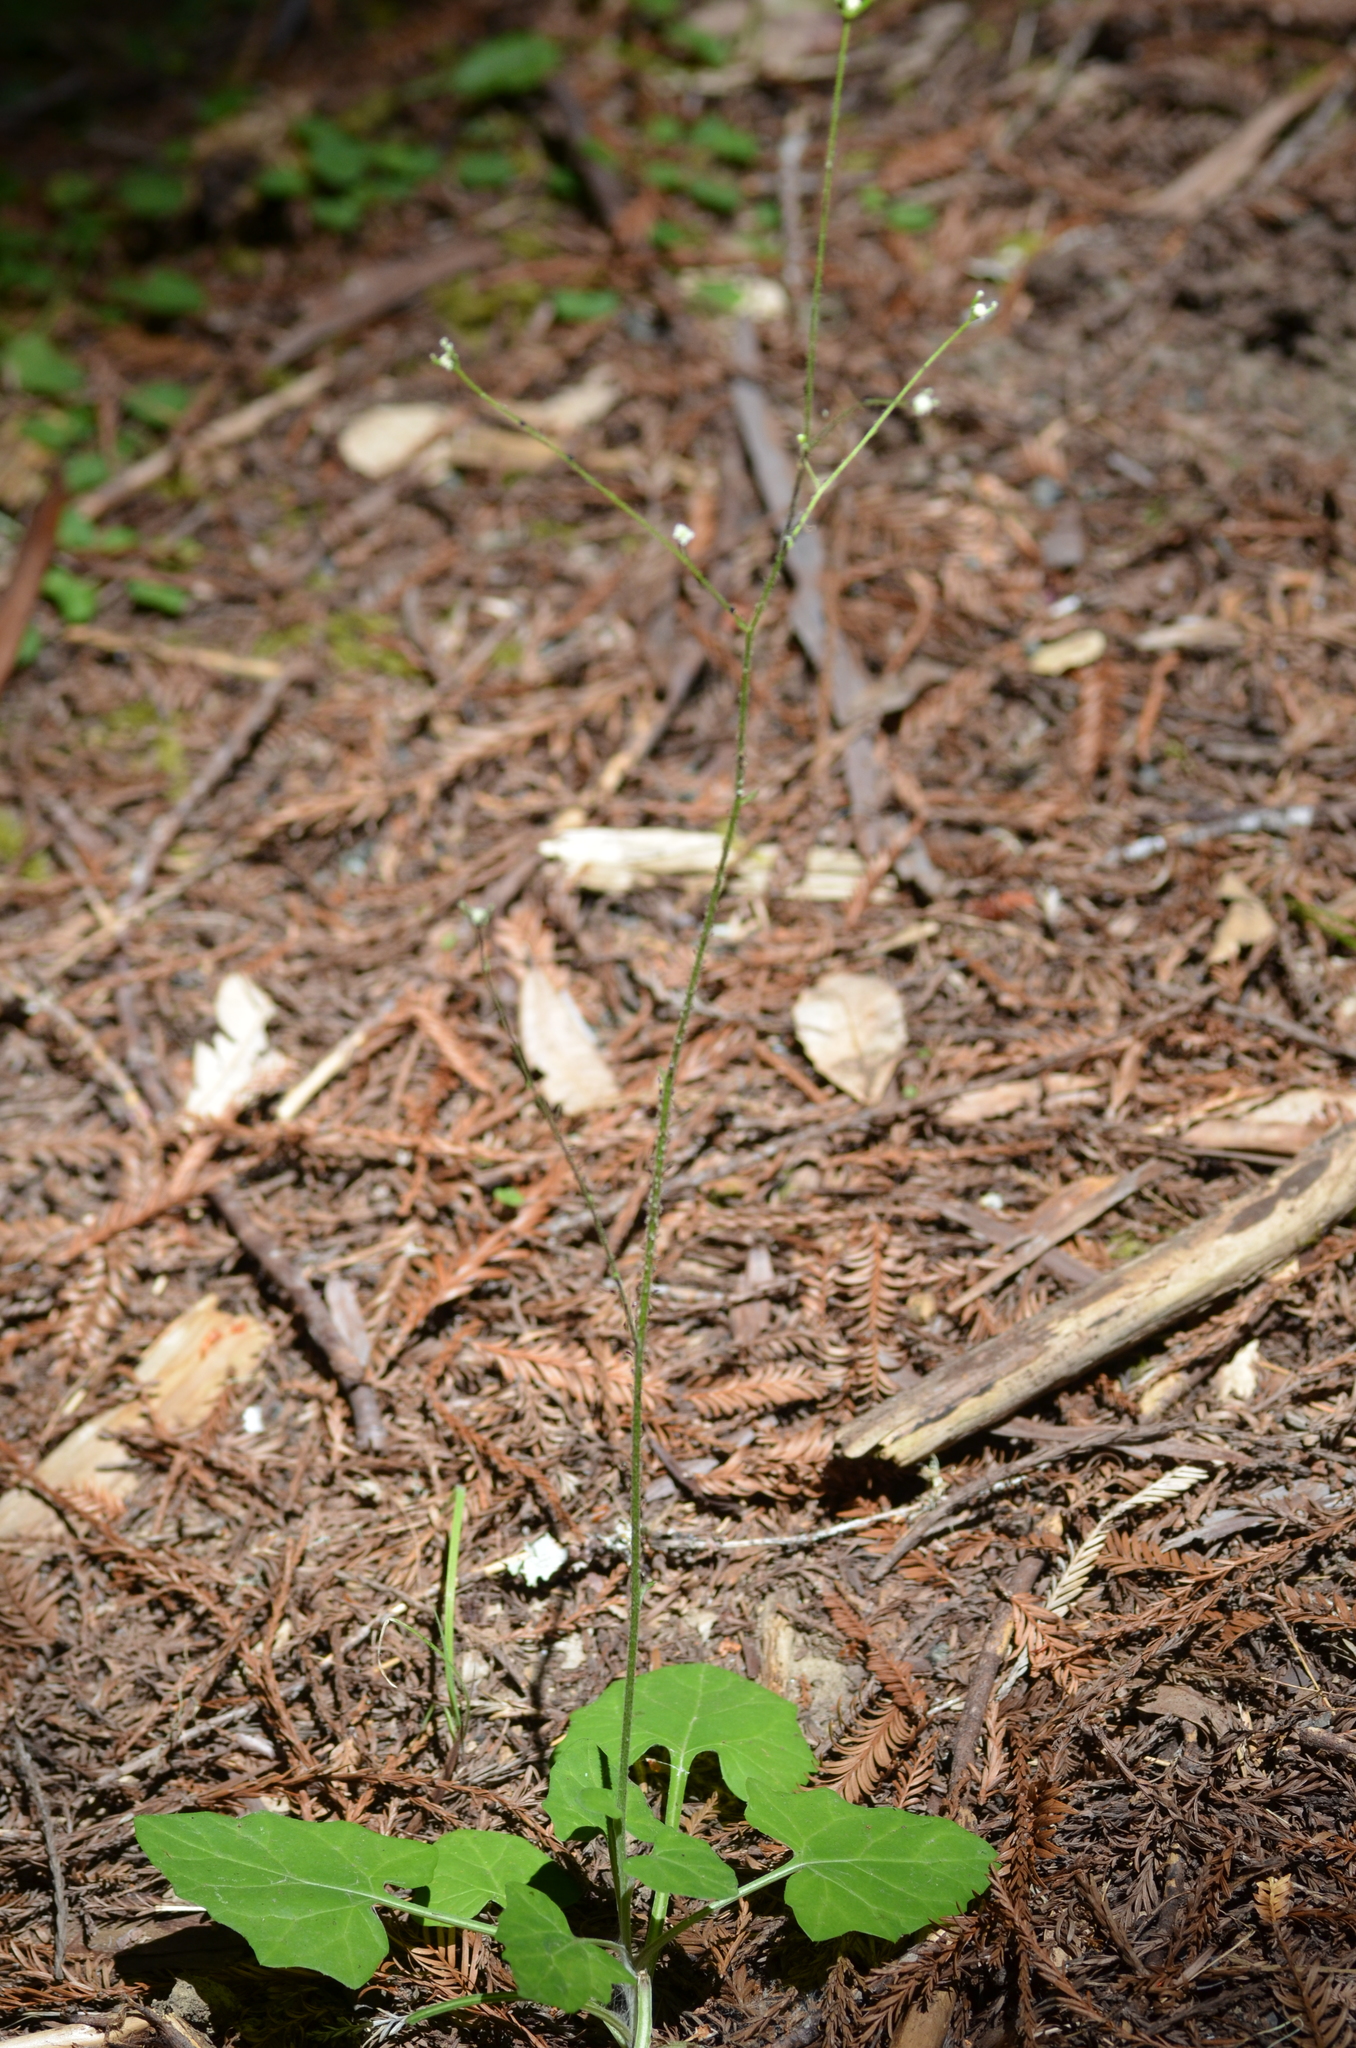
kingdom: Plantae
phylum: Tracheophyta
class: Magnoliopsida
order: Asterales
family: Asteraceae
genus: Adenocaulon
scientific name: Adenocaulon bicolor
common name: Trailplant
